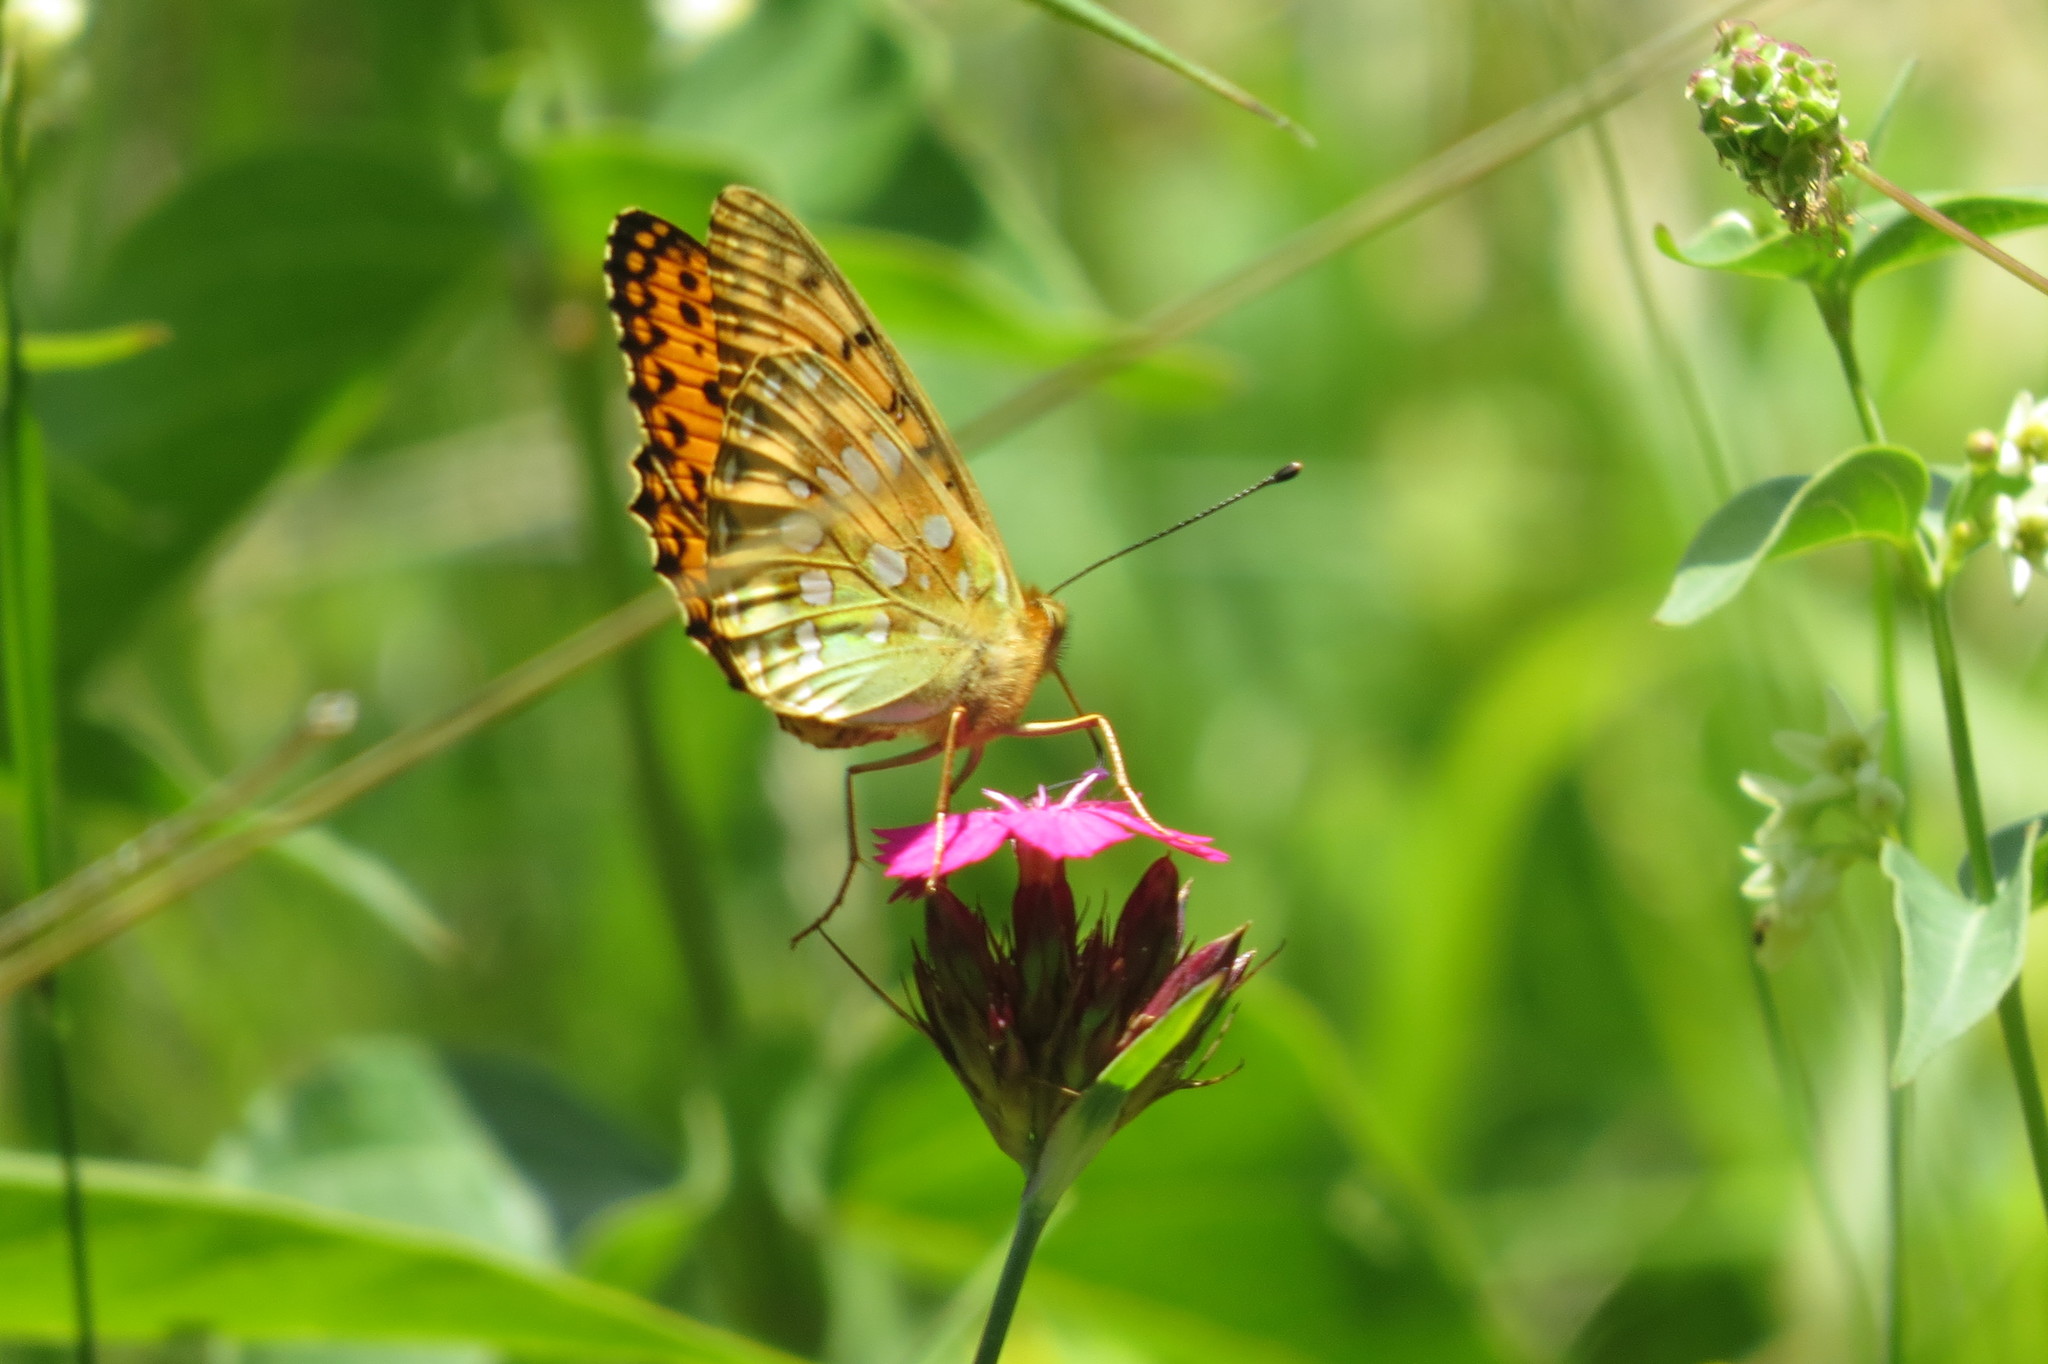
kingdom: Animalia
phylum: Arthropoda
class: Insecta
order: Lepidoptera
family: Nymphalidae
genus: Speyeria
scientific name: Speyeria aglaja
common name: Dark green fritillary
